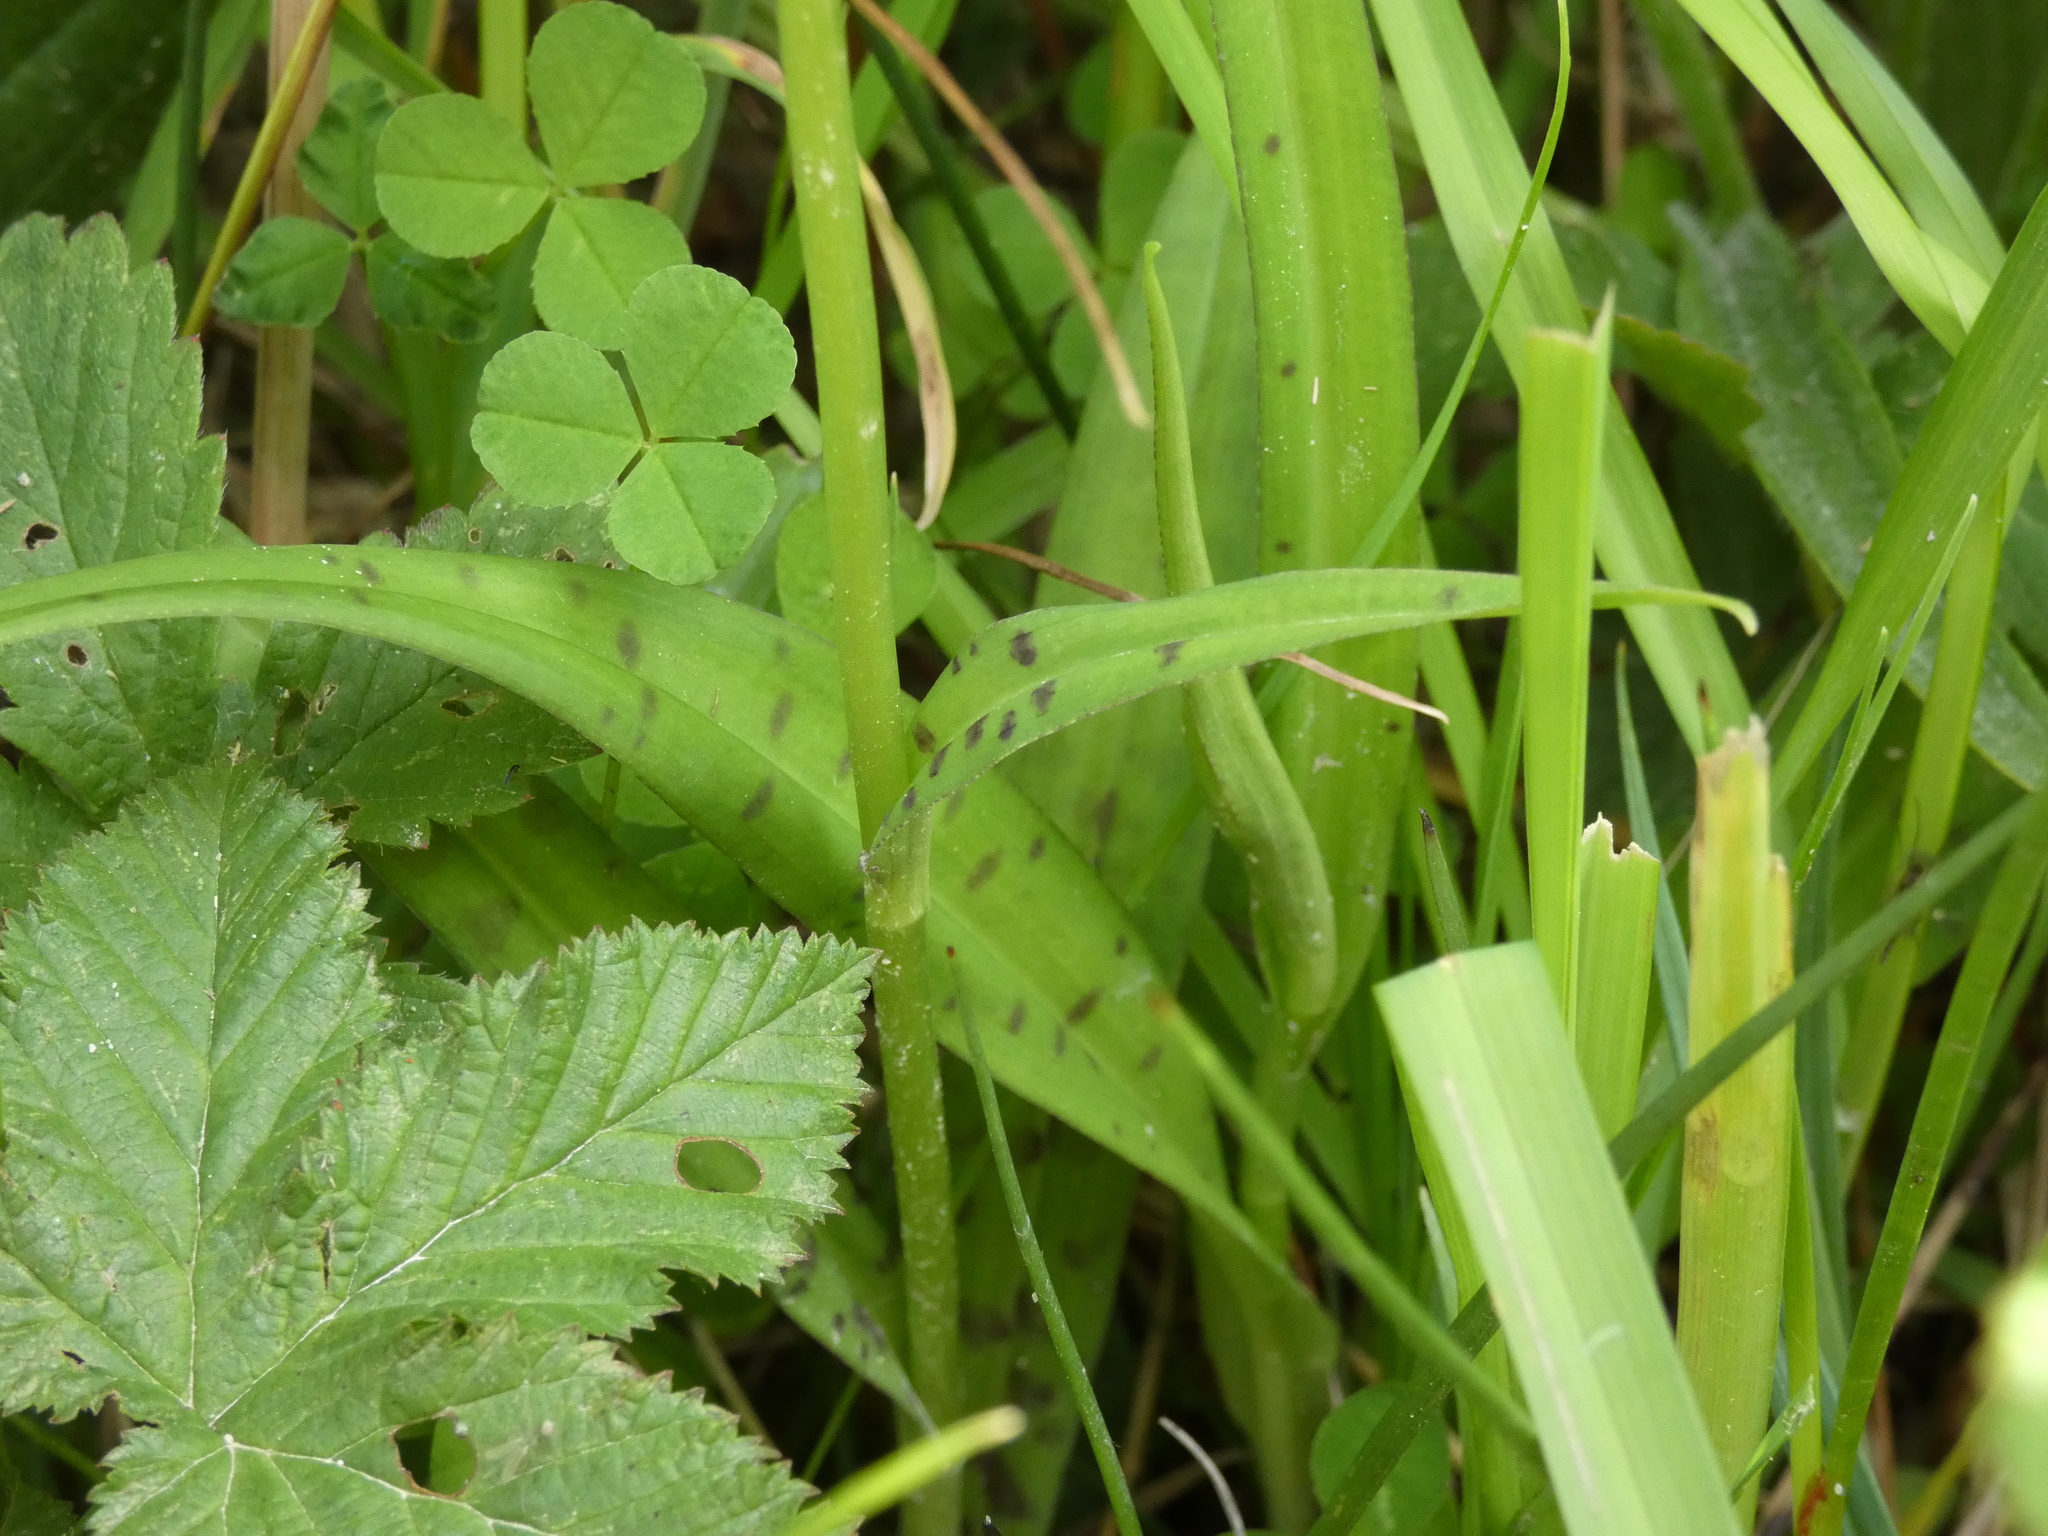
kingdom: Plantae
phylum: Tracheophyta
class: Liliopsida
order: Asparagales
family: Orchidaceae
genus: Dactylorhiza
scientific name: Dactylorhiza maculata
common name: Heath spotted-orchid
